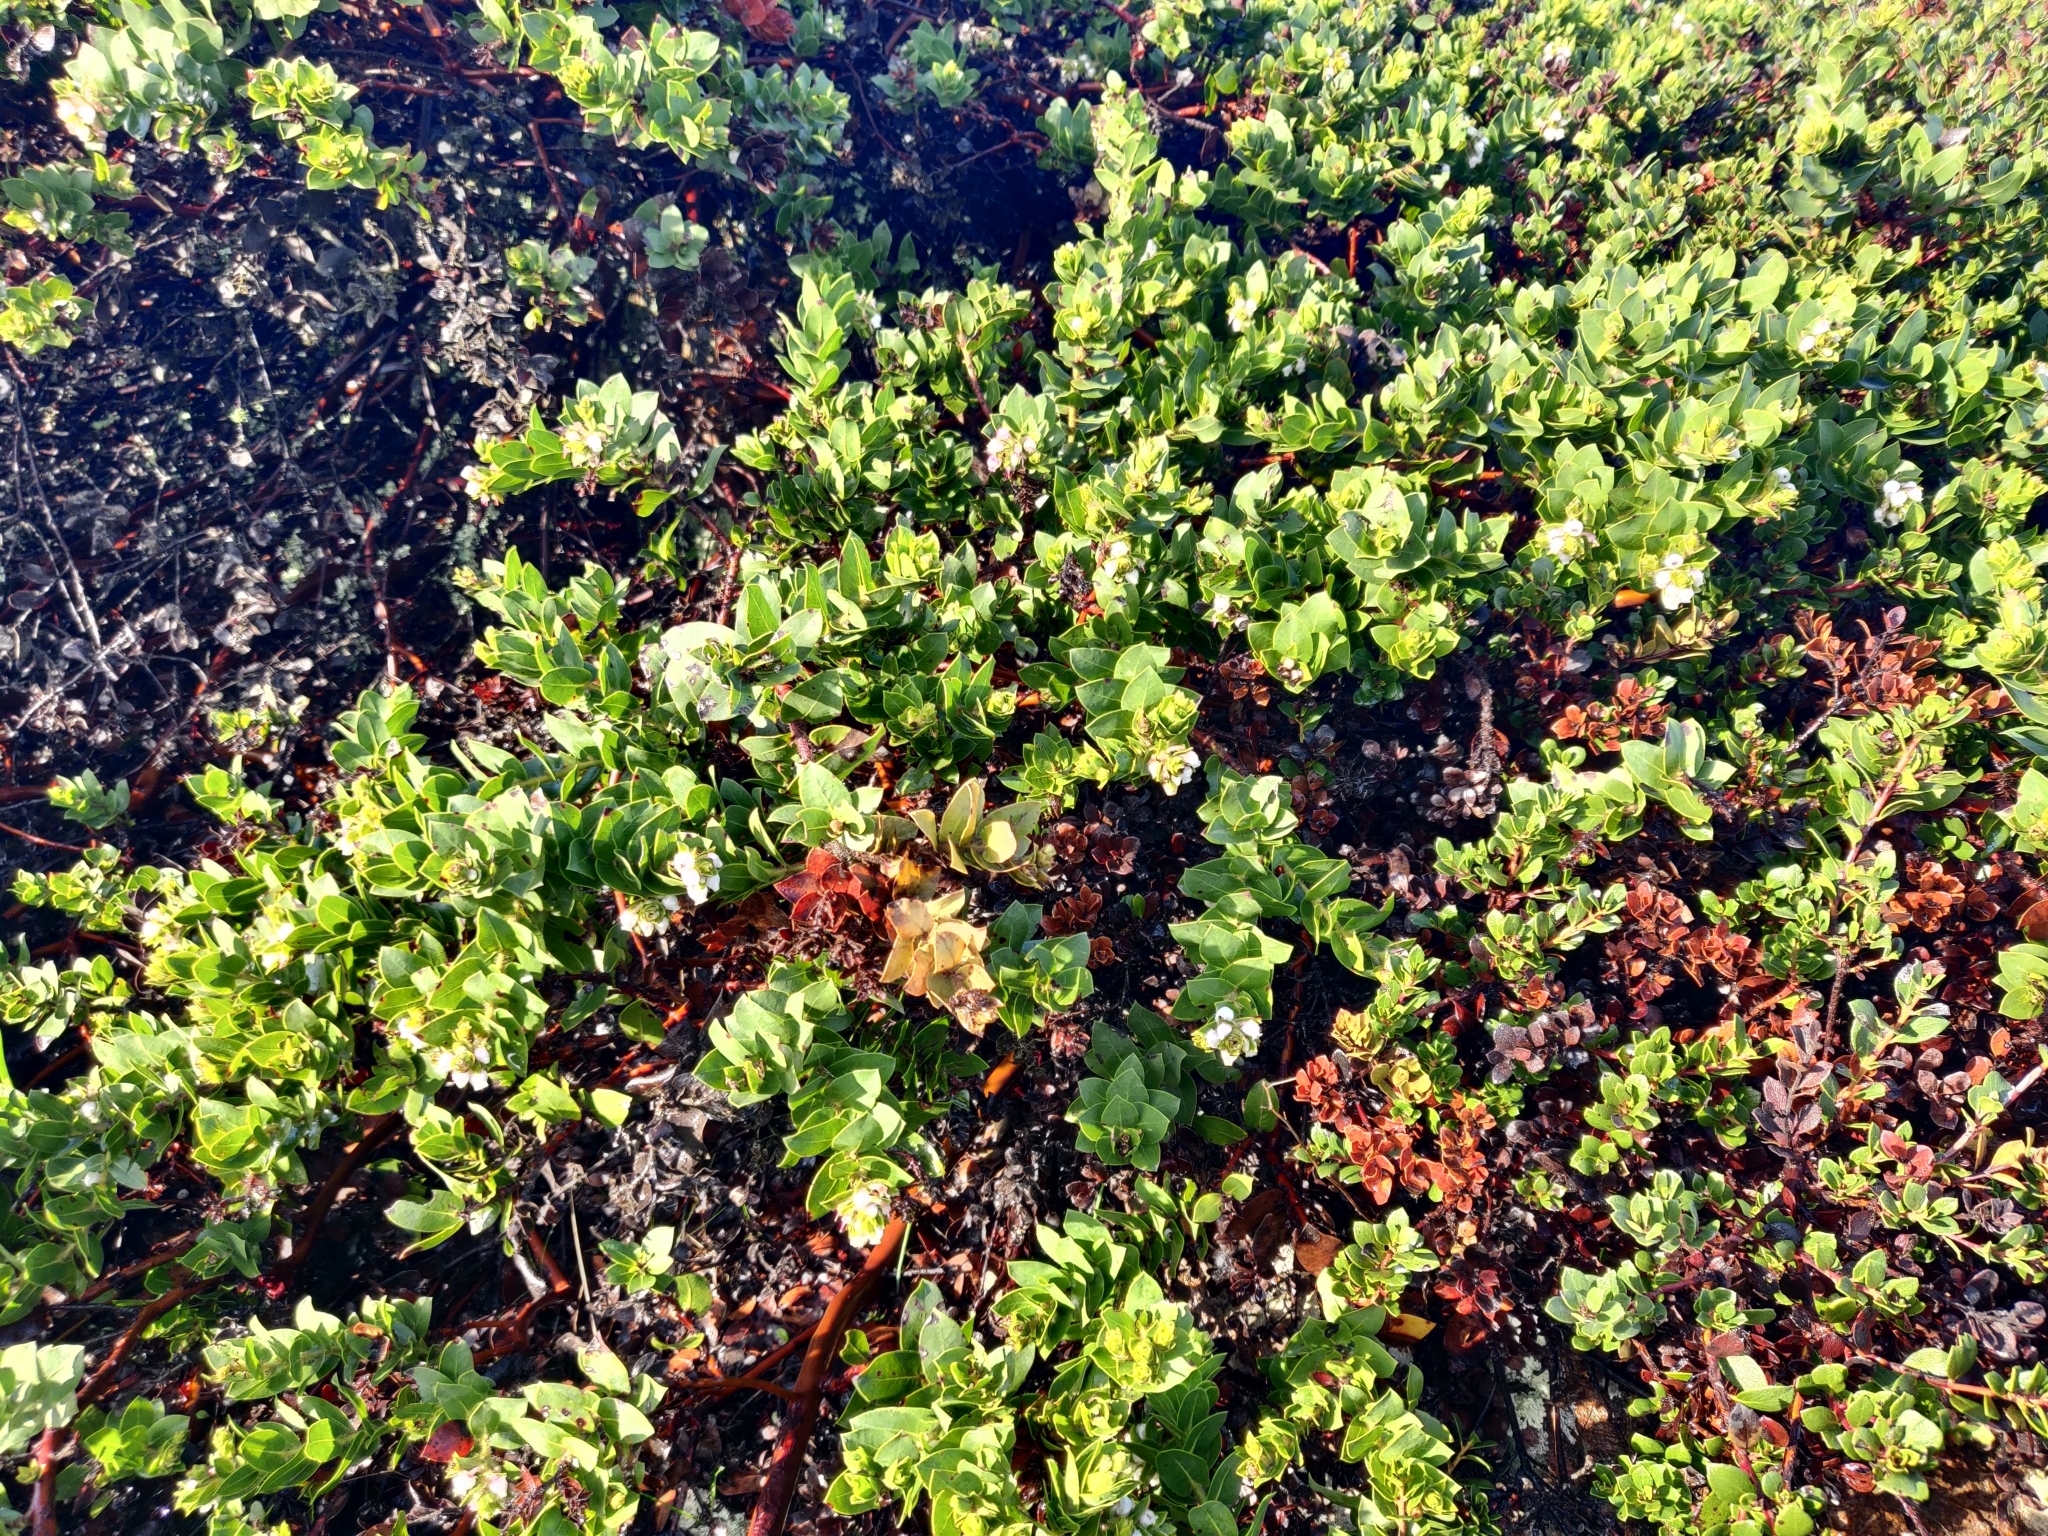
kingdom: Plantae
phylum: Tracheophyta
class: Magnoliopsida
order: Ericales
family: Ericaceae
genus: Arctostaphylos
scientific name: Arctostaphylos imbricata
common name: San bruno mountain manzanita
